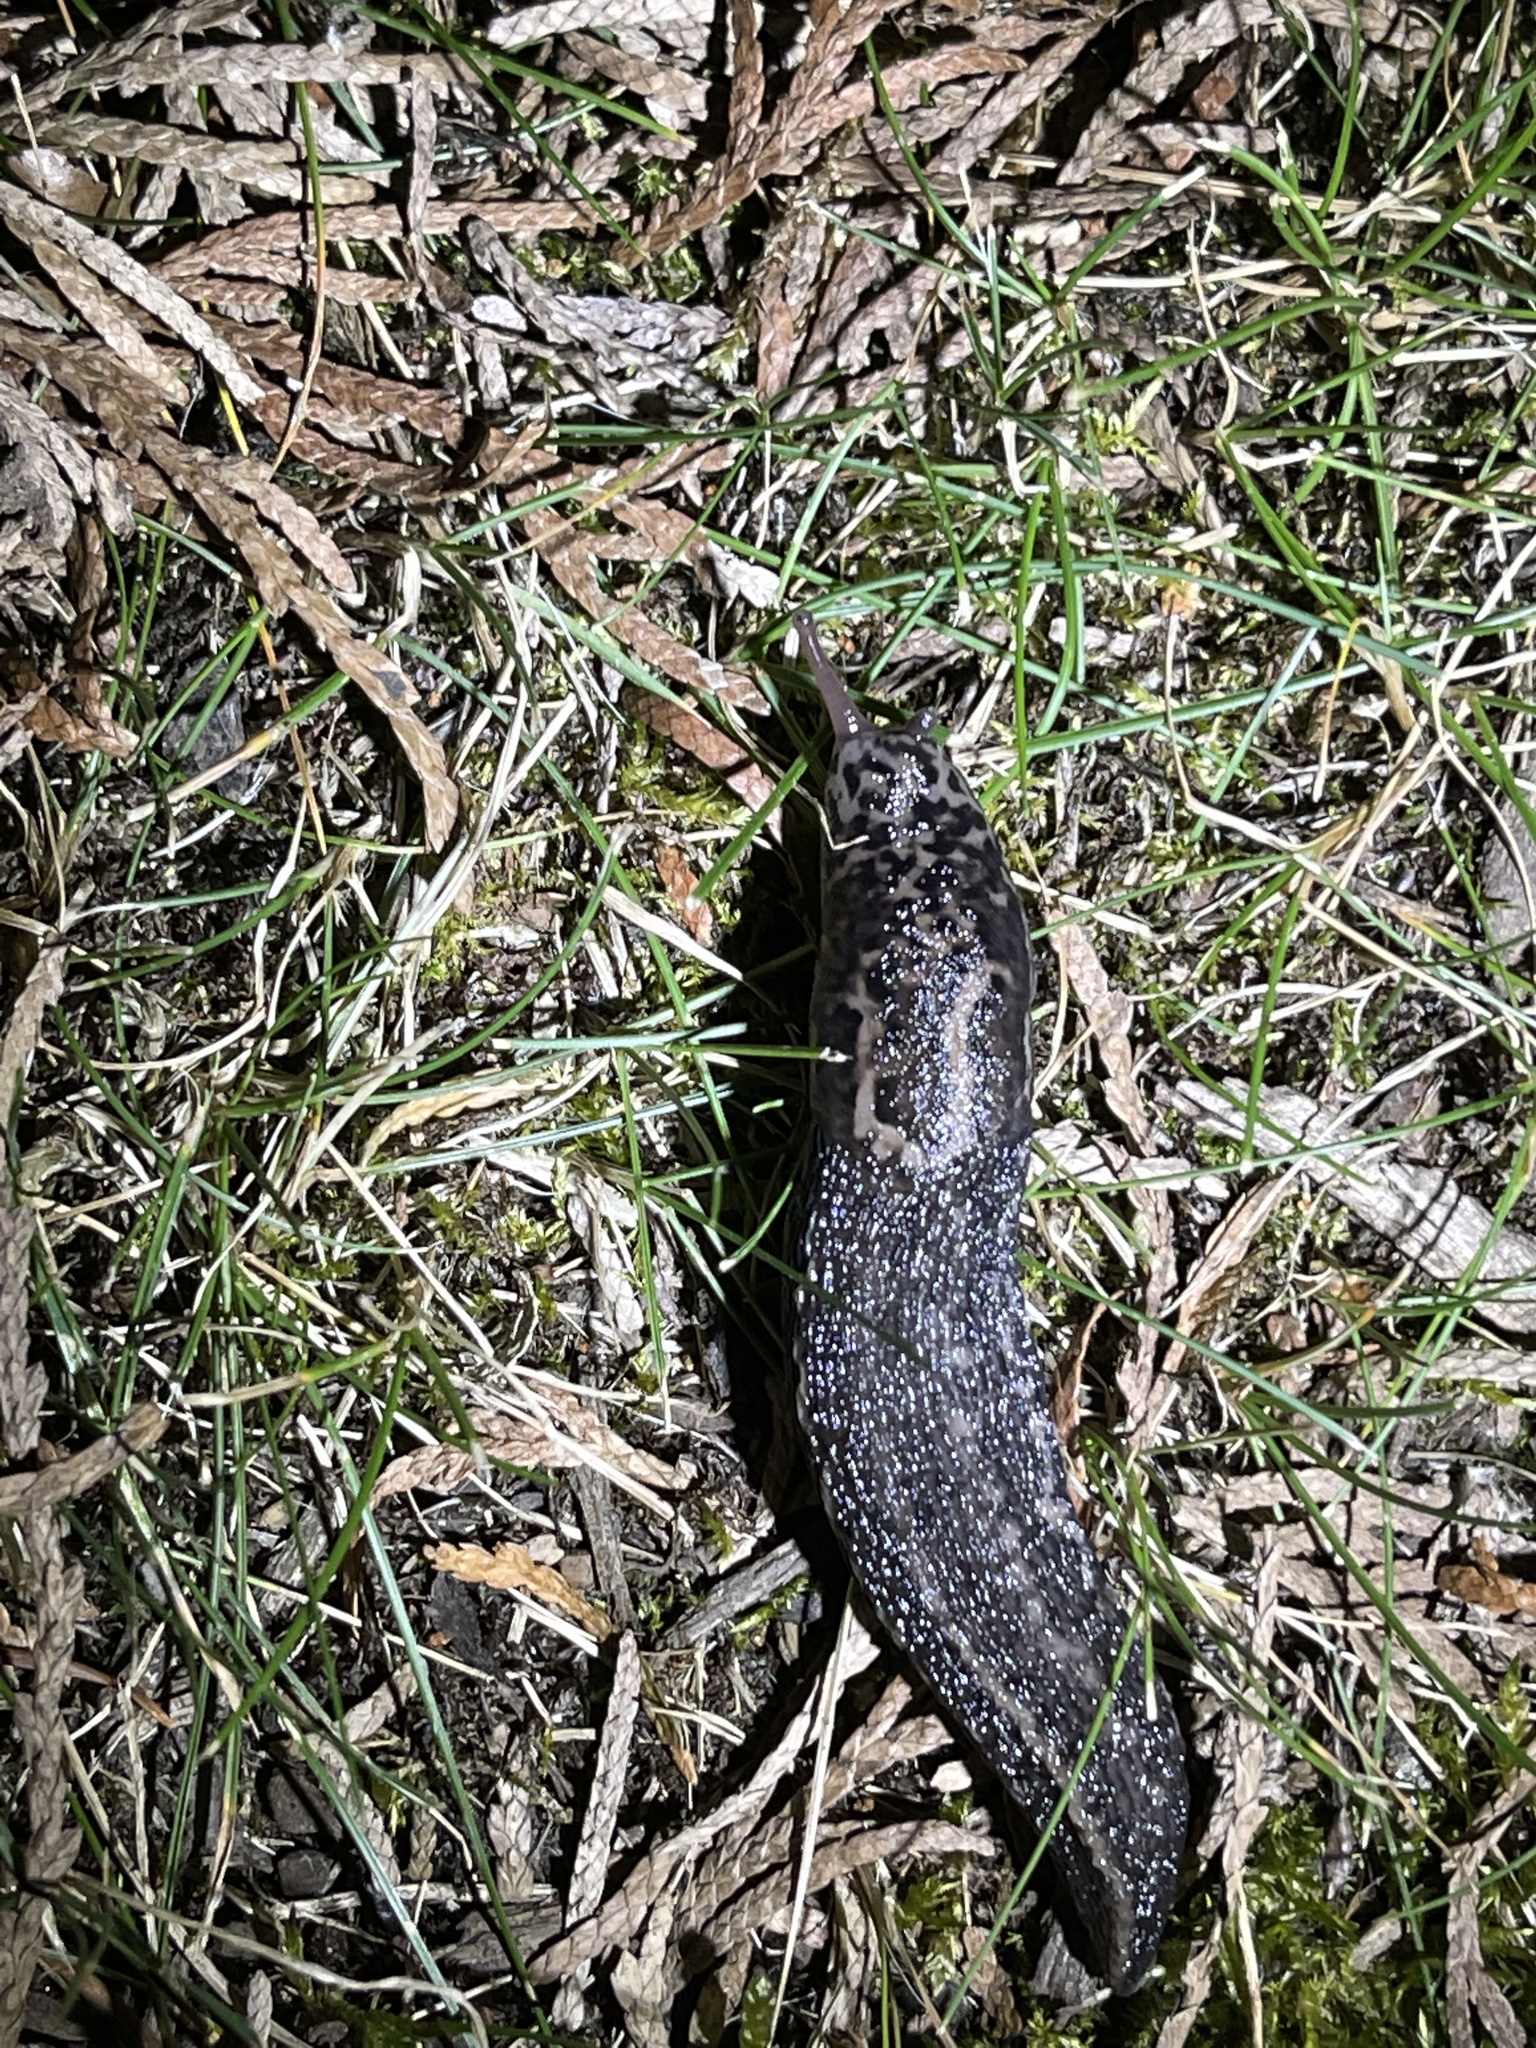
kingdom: Animalia
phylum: Mollusca
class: Gastropoda
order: Stylommatophora
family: Limacidae
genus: Limax
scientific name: Limax maximus
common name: Great grey slug
